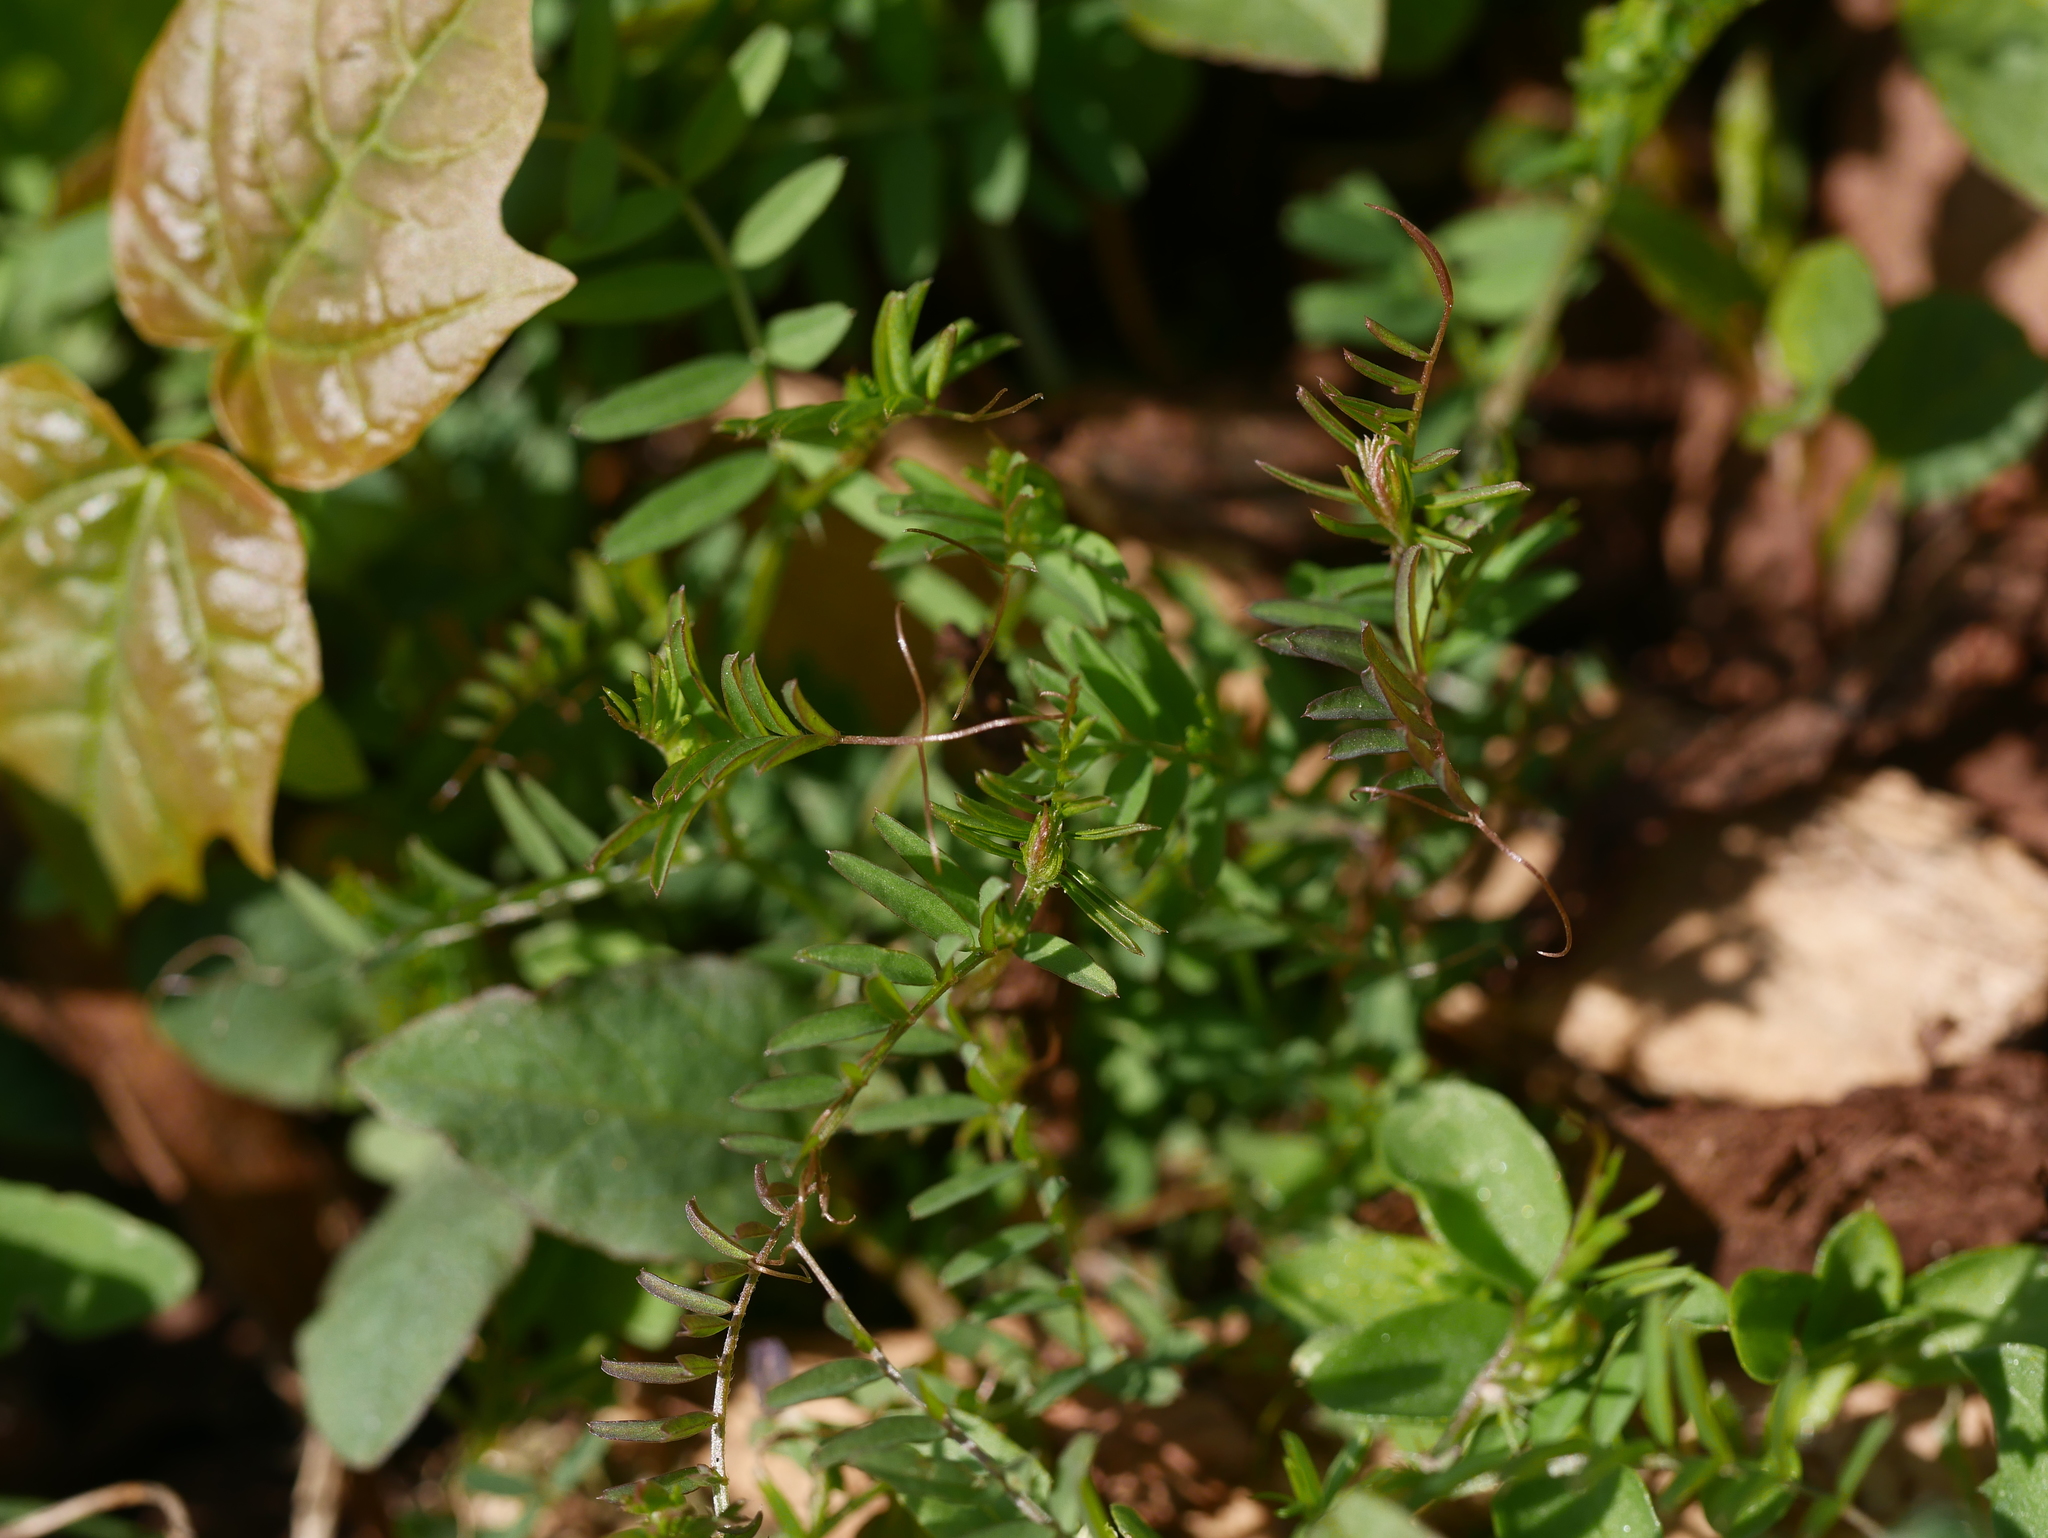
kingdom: Plantae
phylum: Tracheophyta
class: Magnoliopsida
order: Fabales
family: Fabaceae
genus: Vicia
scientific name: Vicia hirsuta
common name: Tiny vetch
